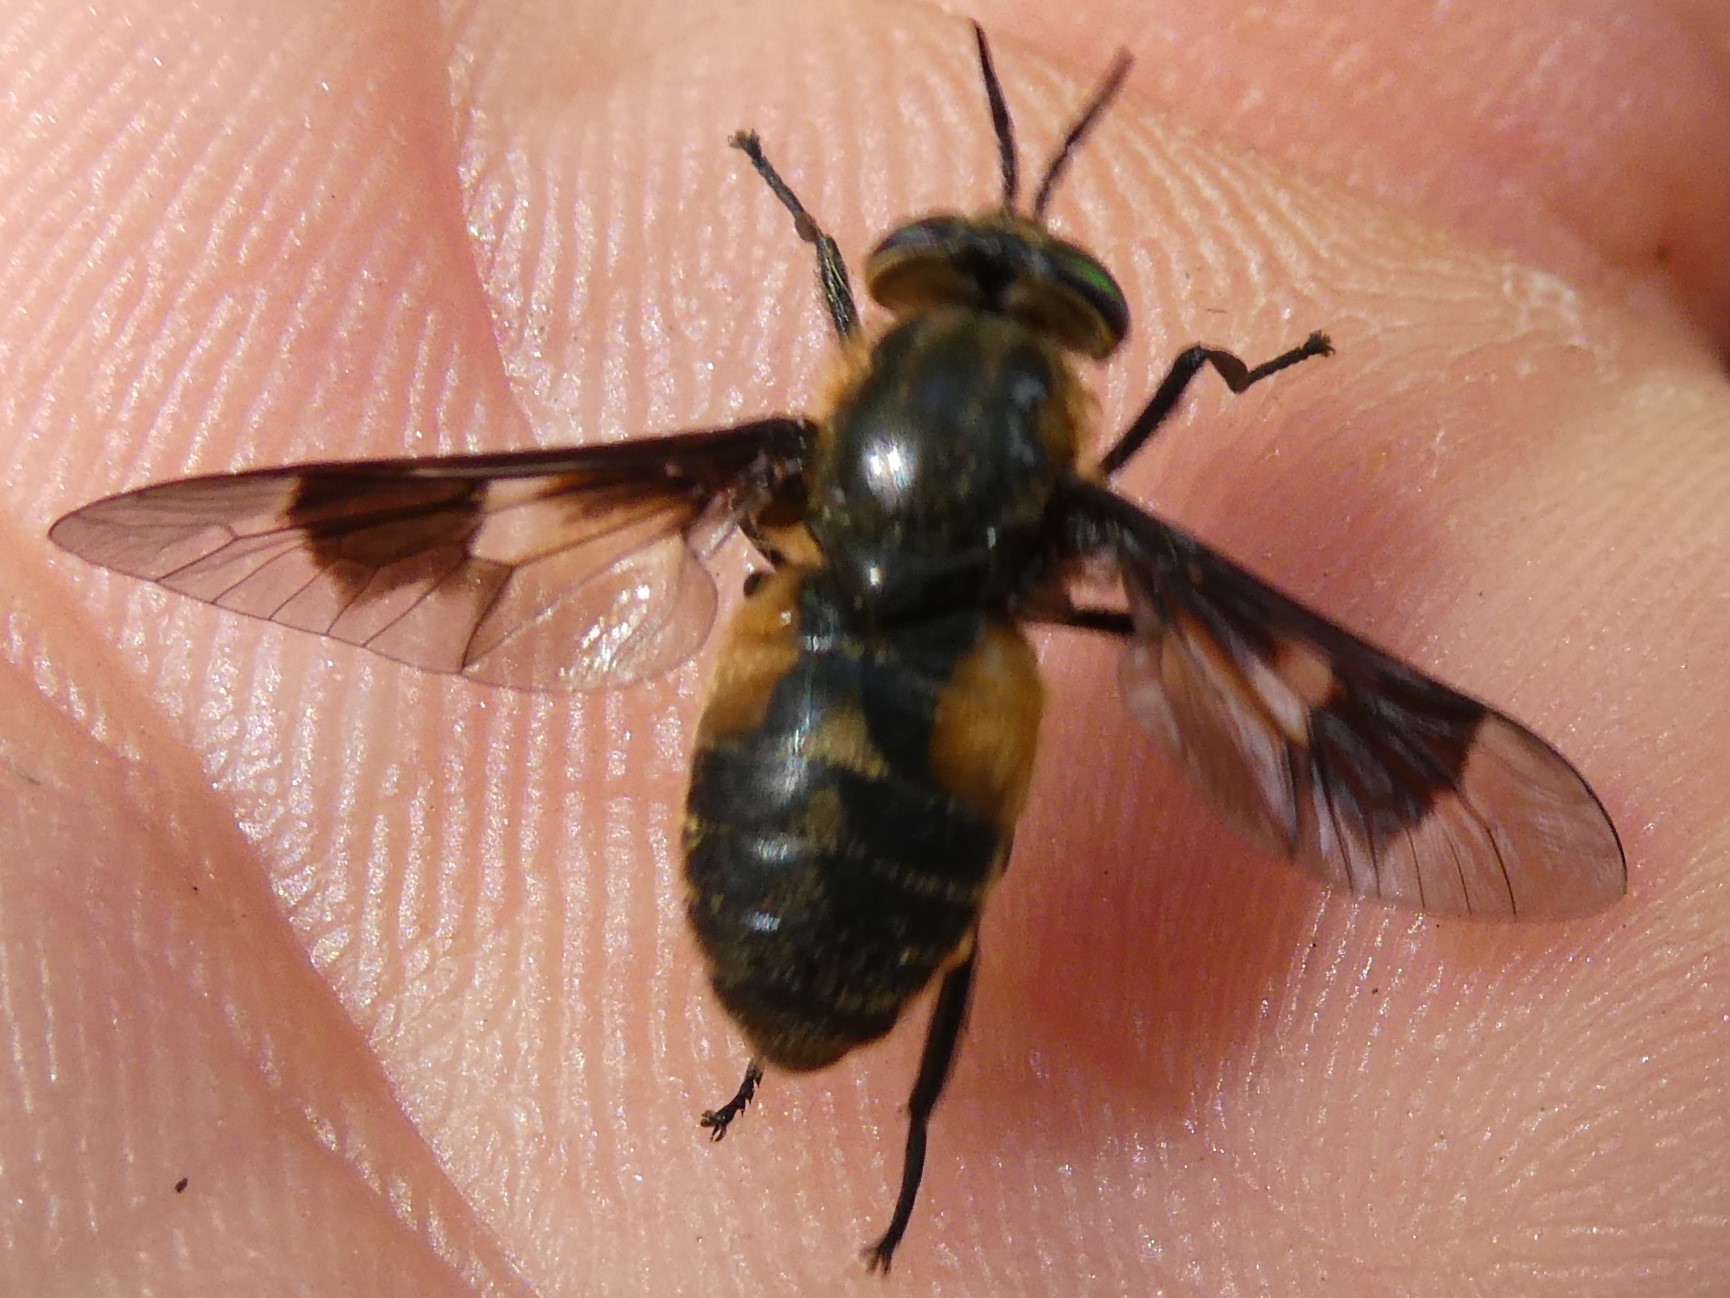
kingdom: Animalia
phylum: Arthropoda
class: Insecta
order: Diptera
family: Tabanidae
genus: Chrysops
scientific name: Chrysops excitans
